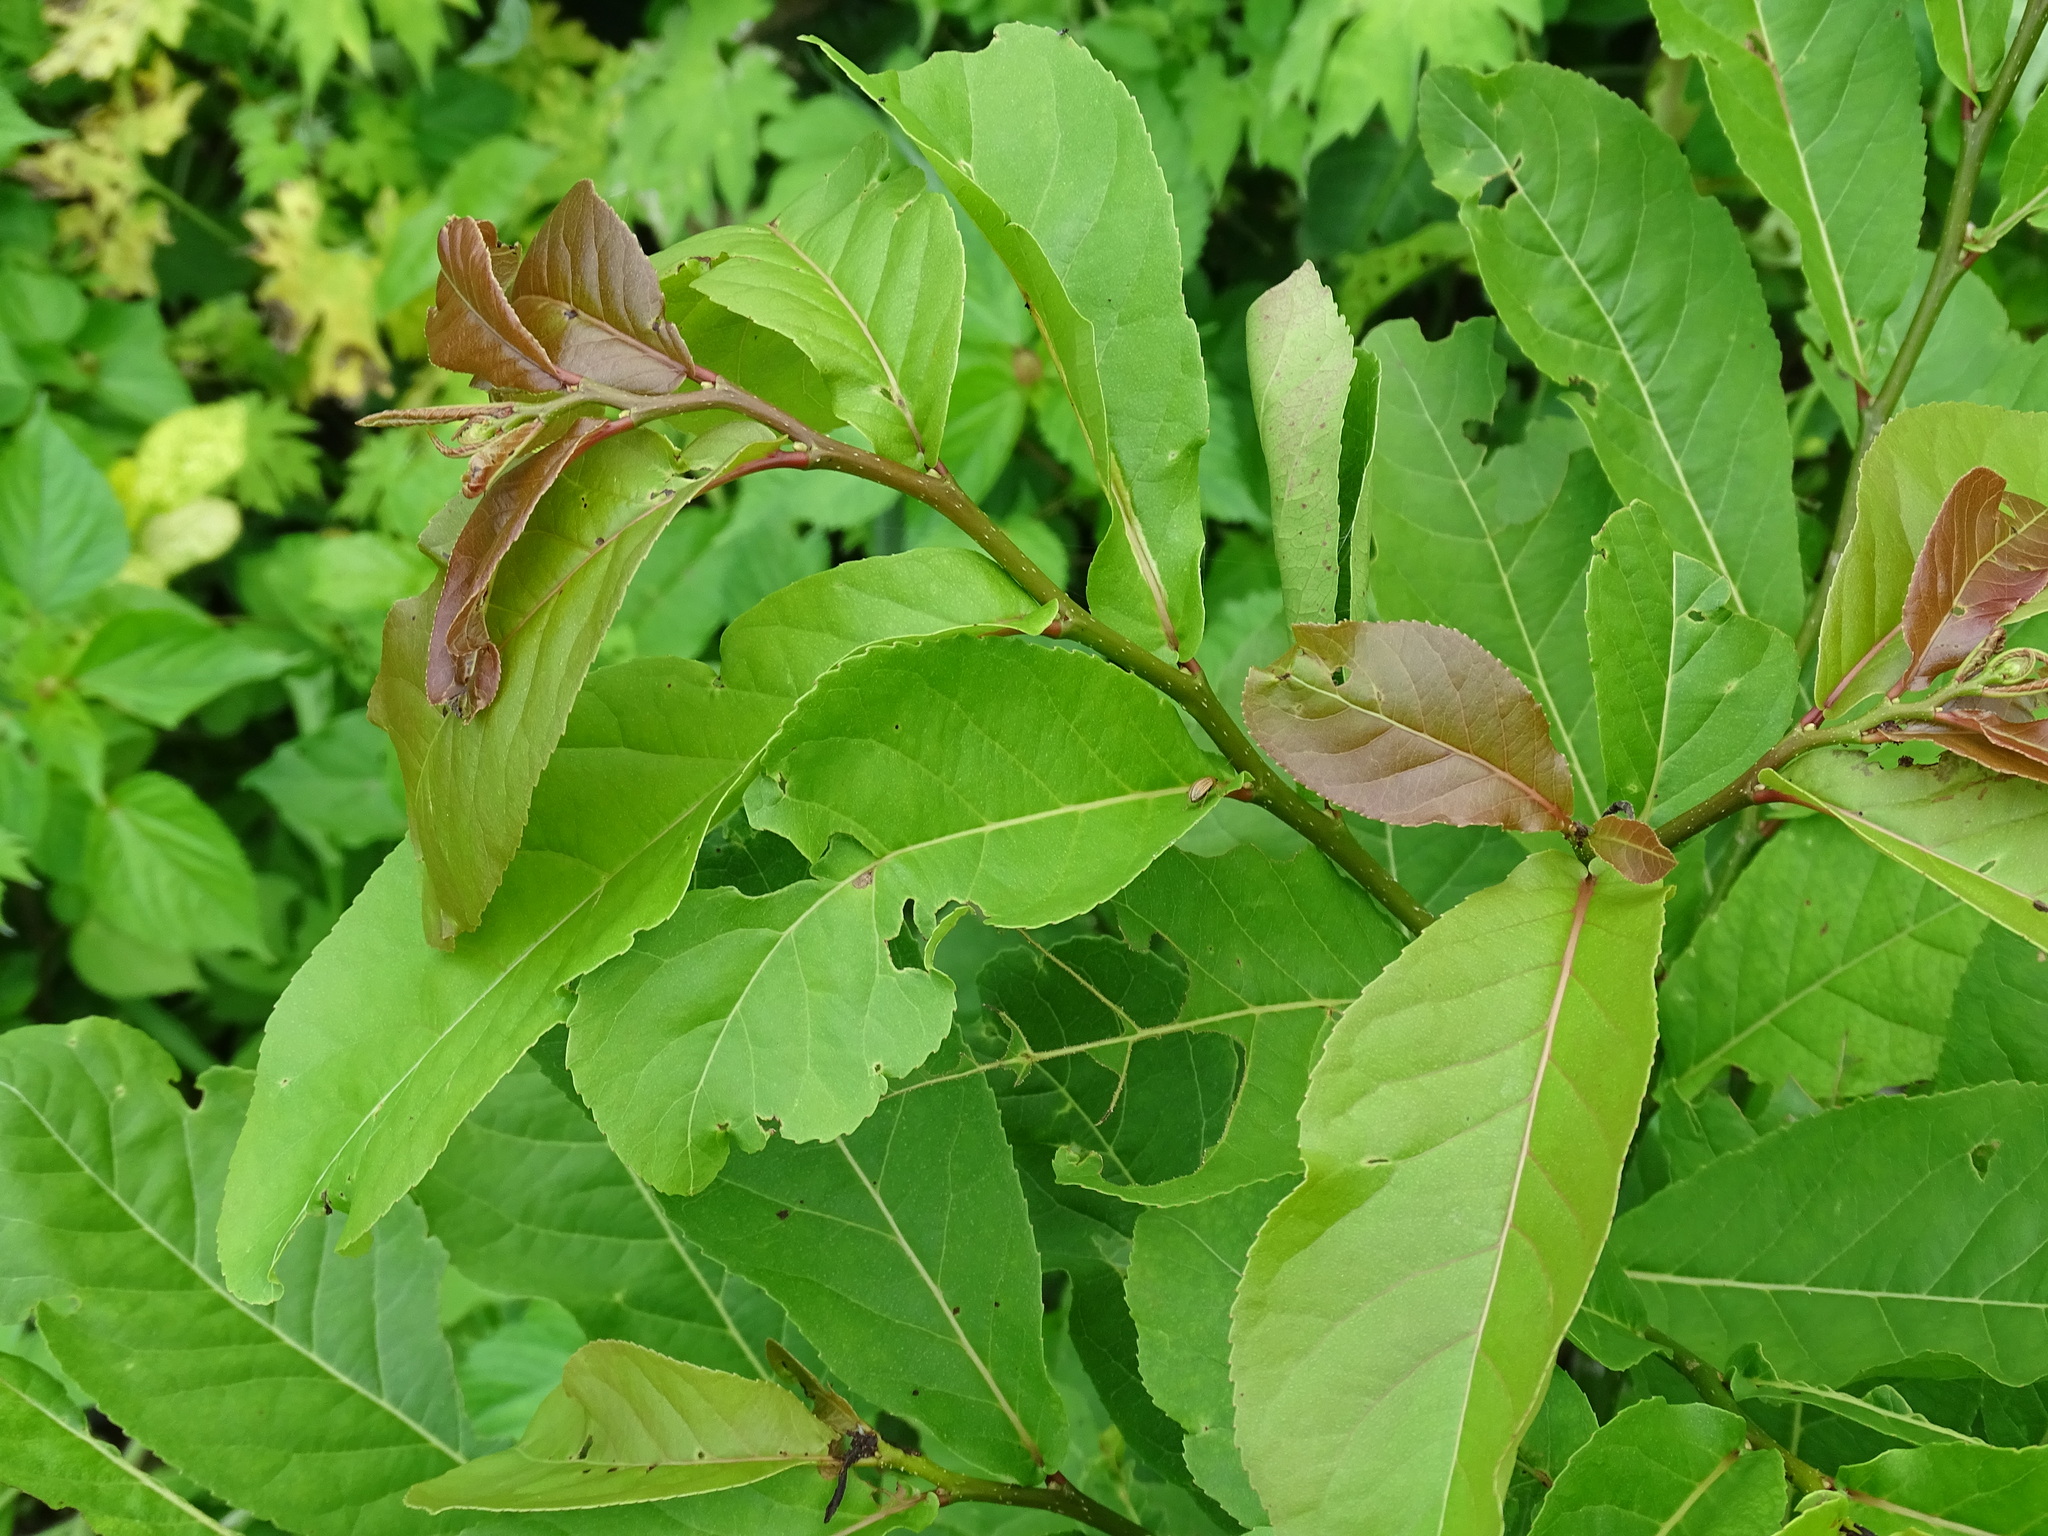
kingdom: Plantae
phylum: Tracheophyta
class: Magnoliopsida
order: Malpighiales
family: Salicaceae
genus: Casearia
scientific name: Casearia corymbosa
